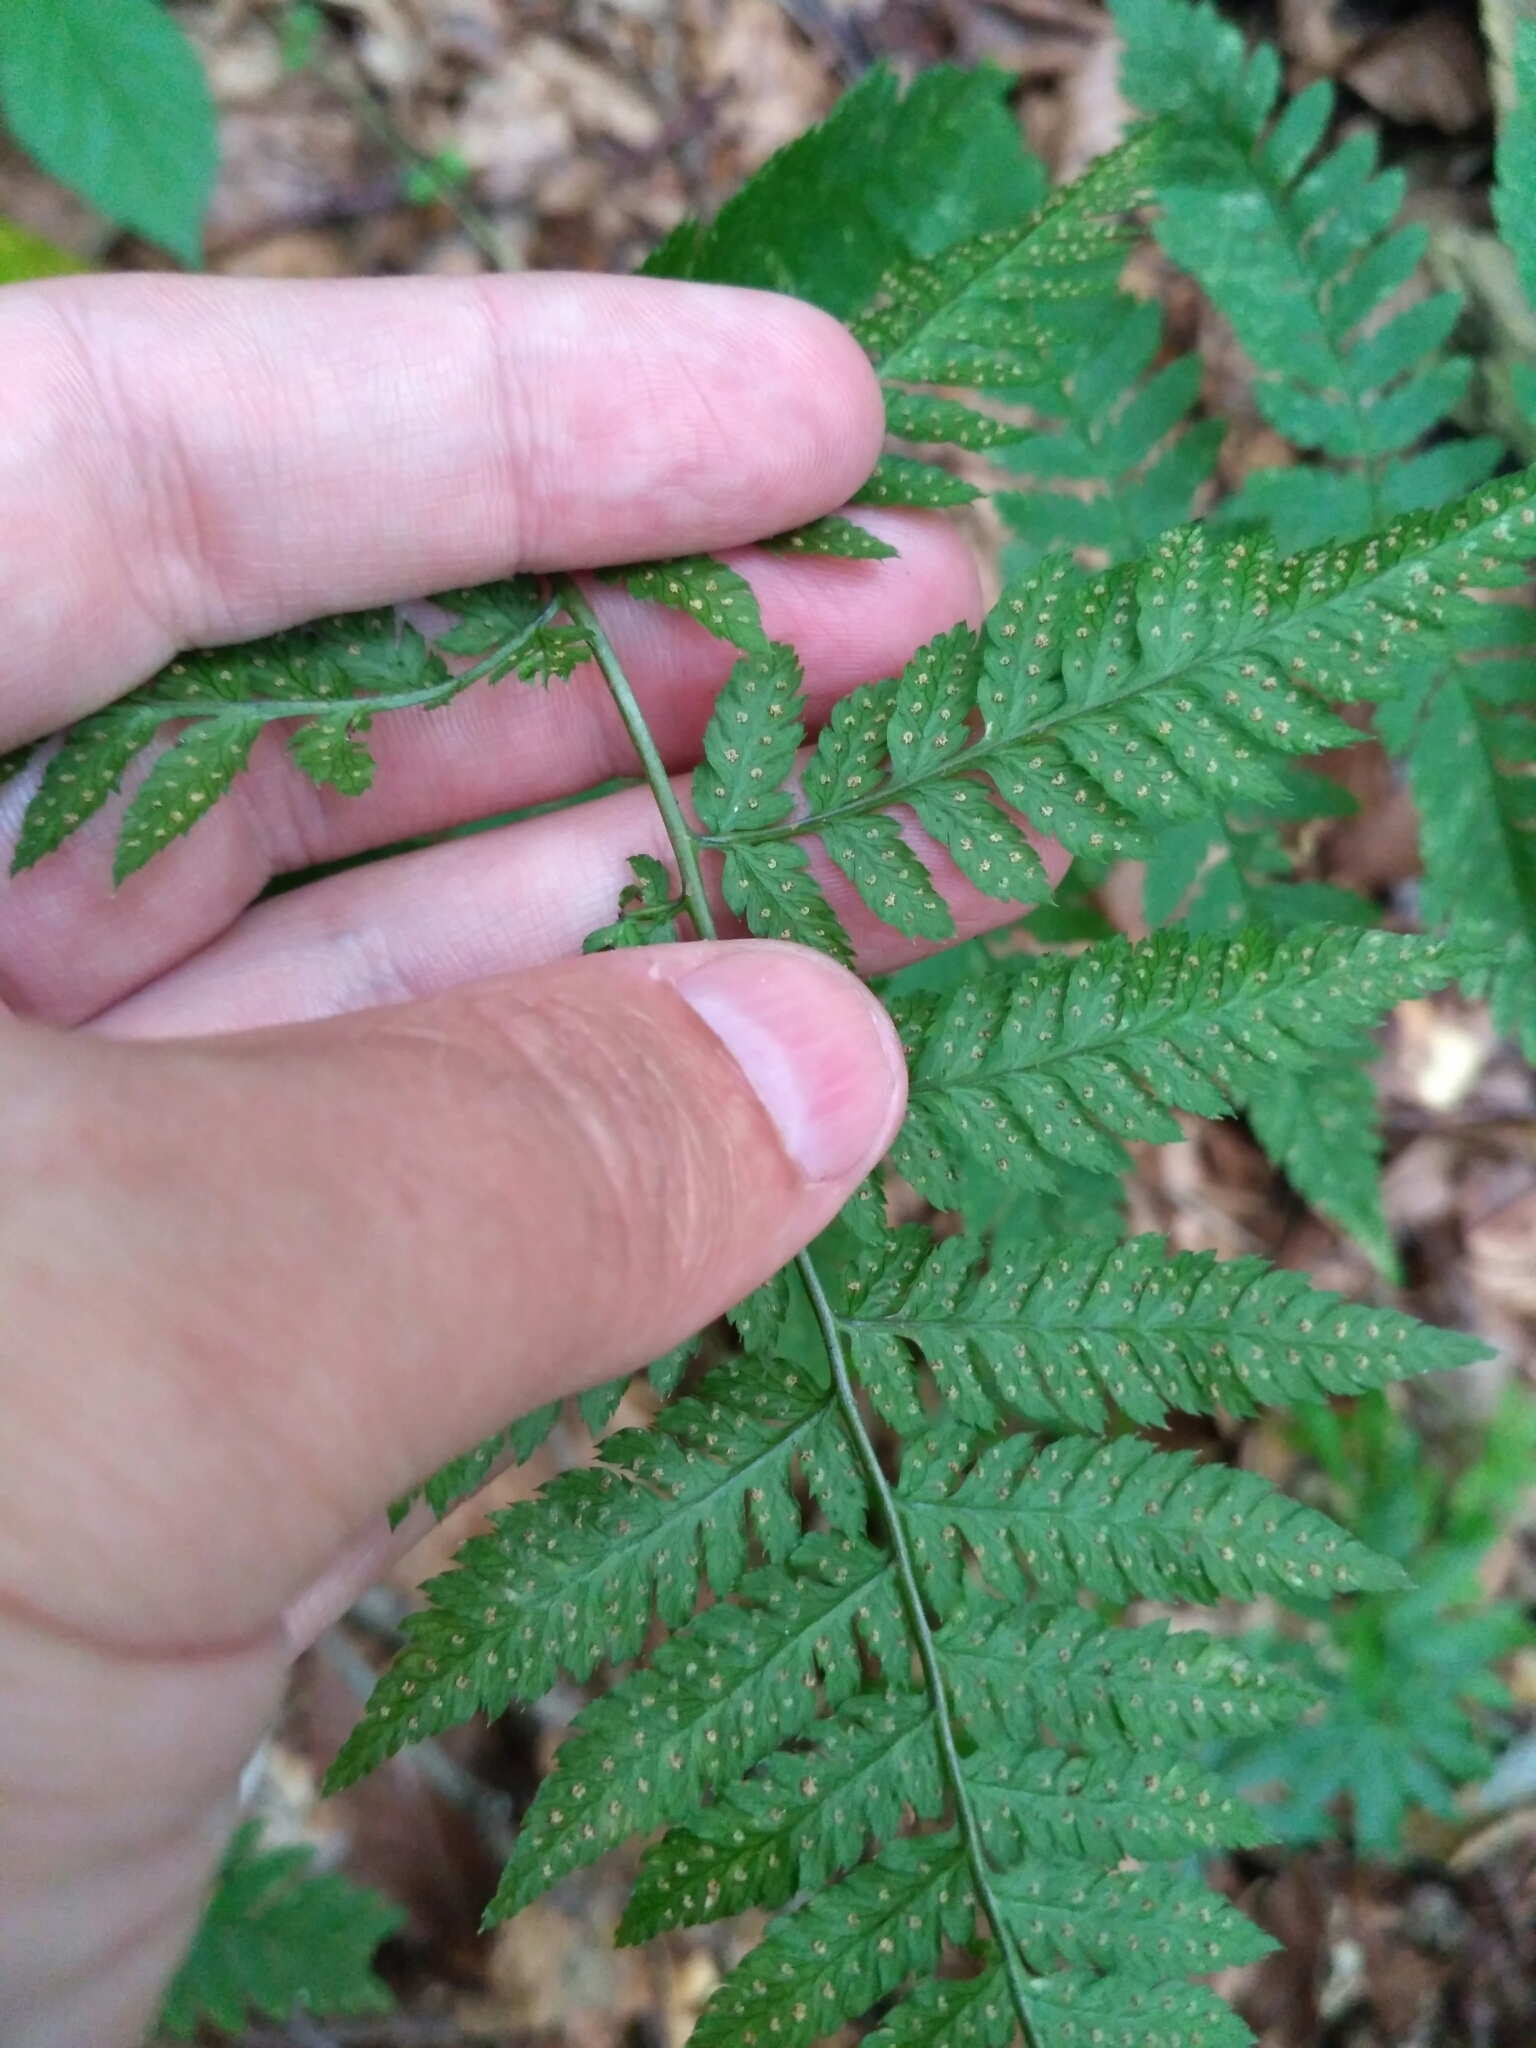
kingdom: Plantae
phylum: Tracheophyta
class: Polypodiopsida
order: Polypodiales
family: Dryopteridaceae
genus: Dryopteris
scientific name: Dryopteris carthusiana
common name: Narrow buckler-fern
